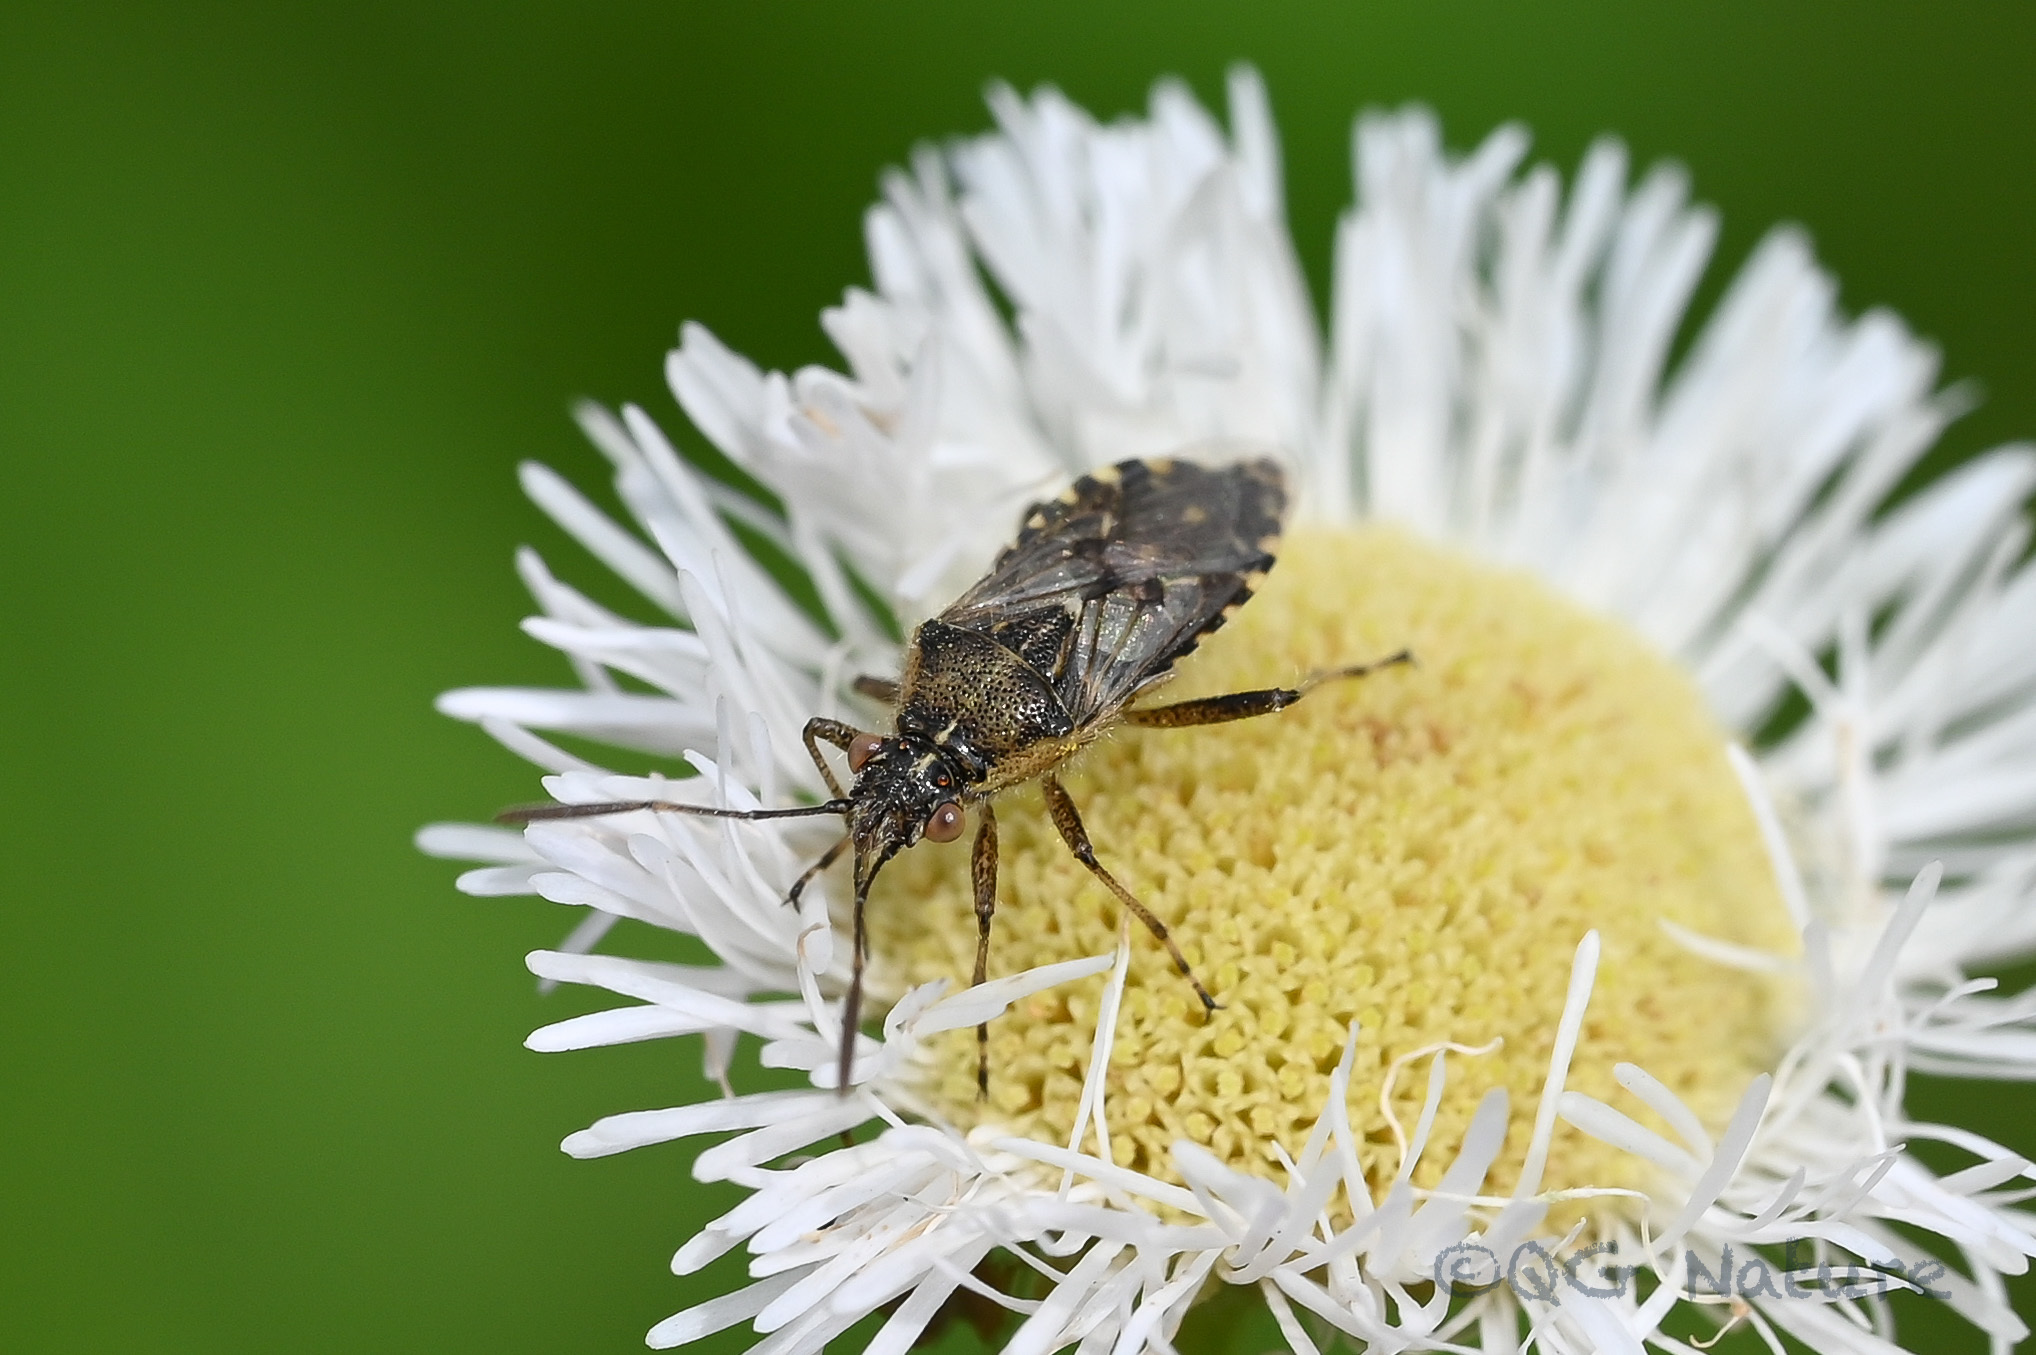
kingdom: Animalia
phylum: Arthropoda
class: Insecta
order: Hemiptera
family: Rhopalidae
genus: Liorhyssus
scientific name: Liorhyssus hyalinus
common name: Scentless plant bug
